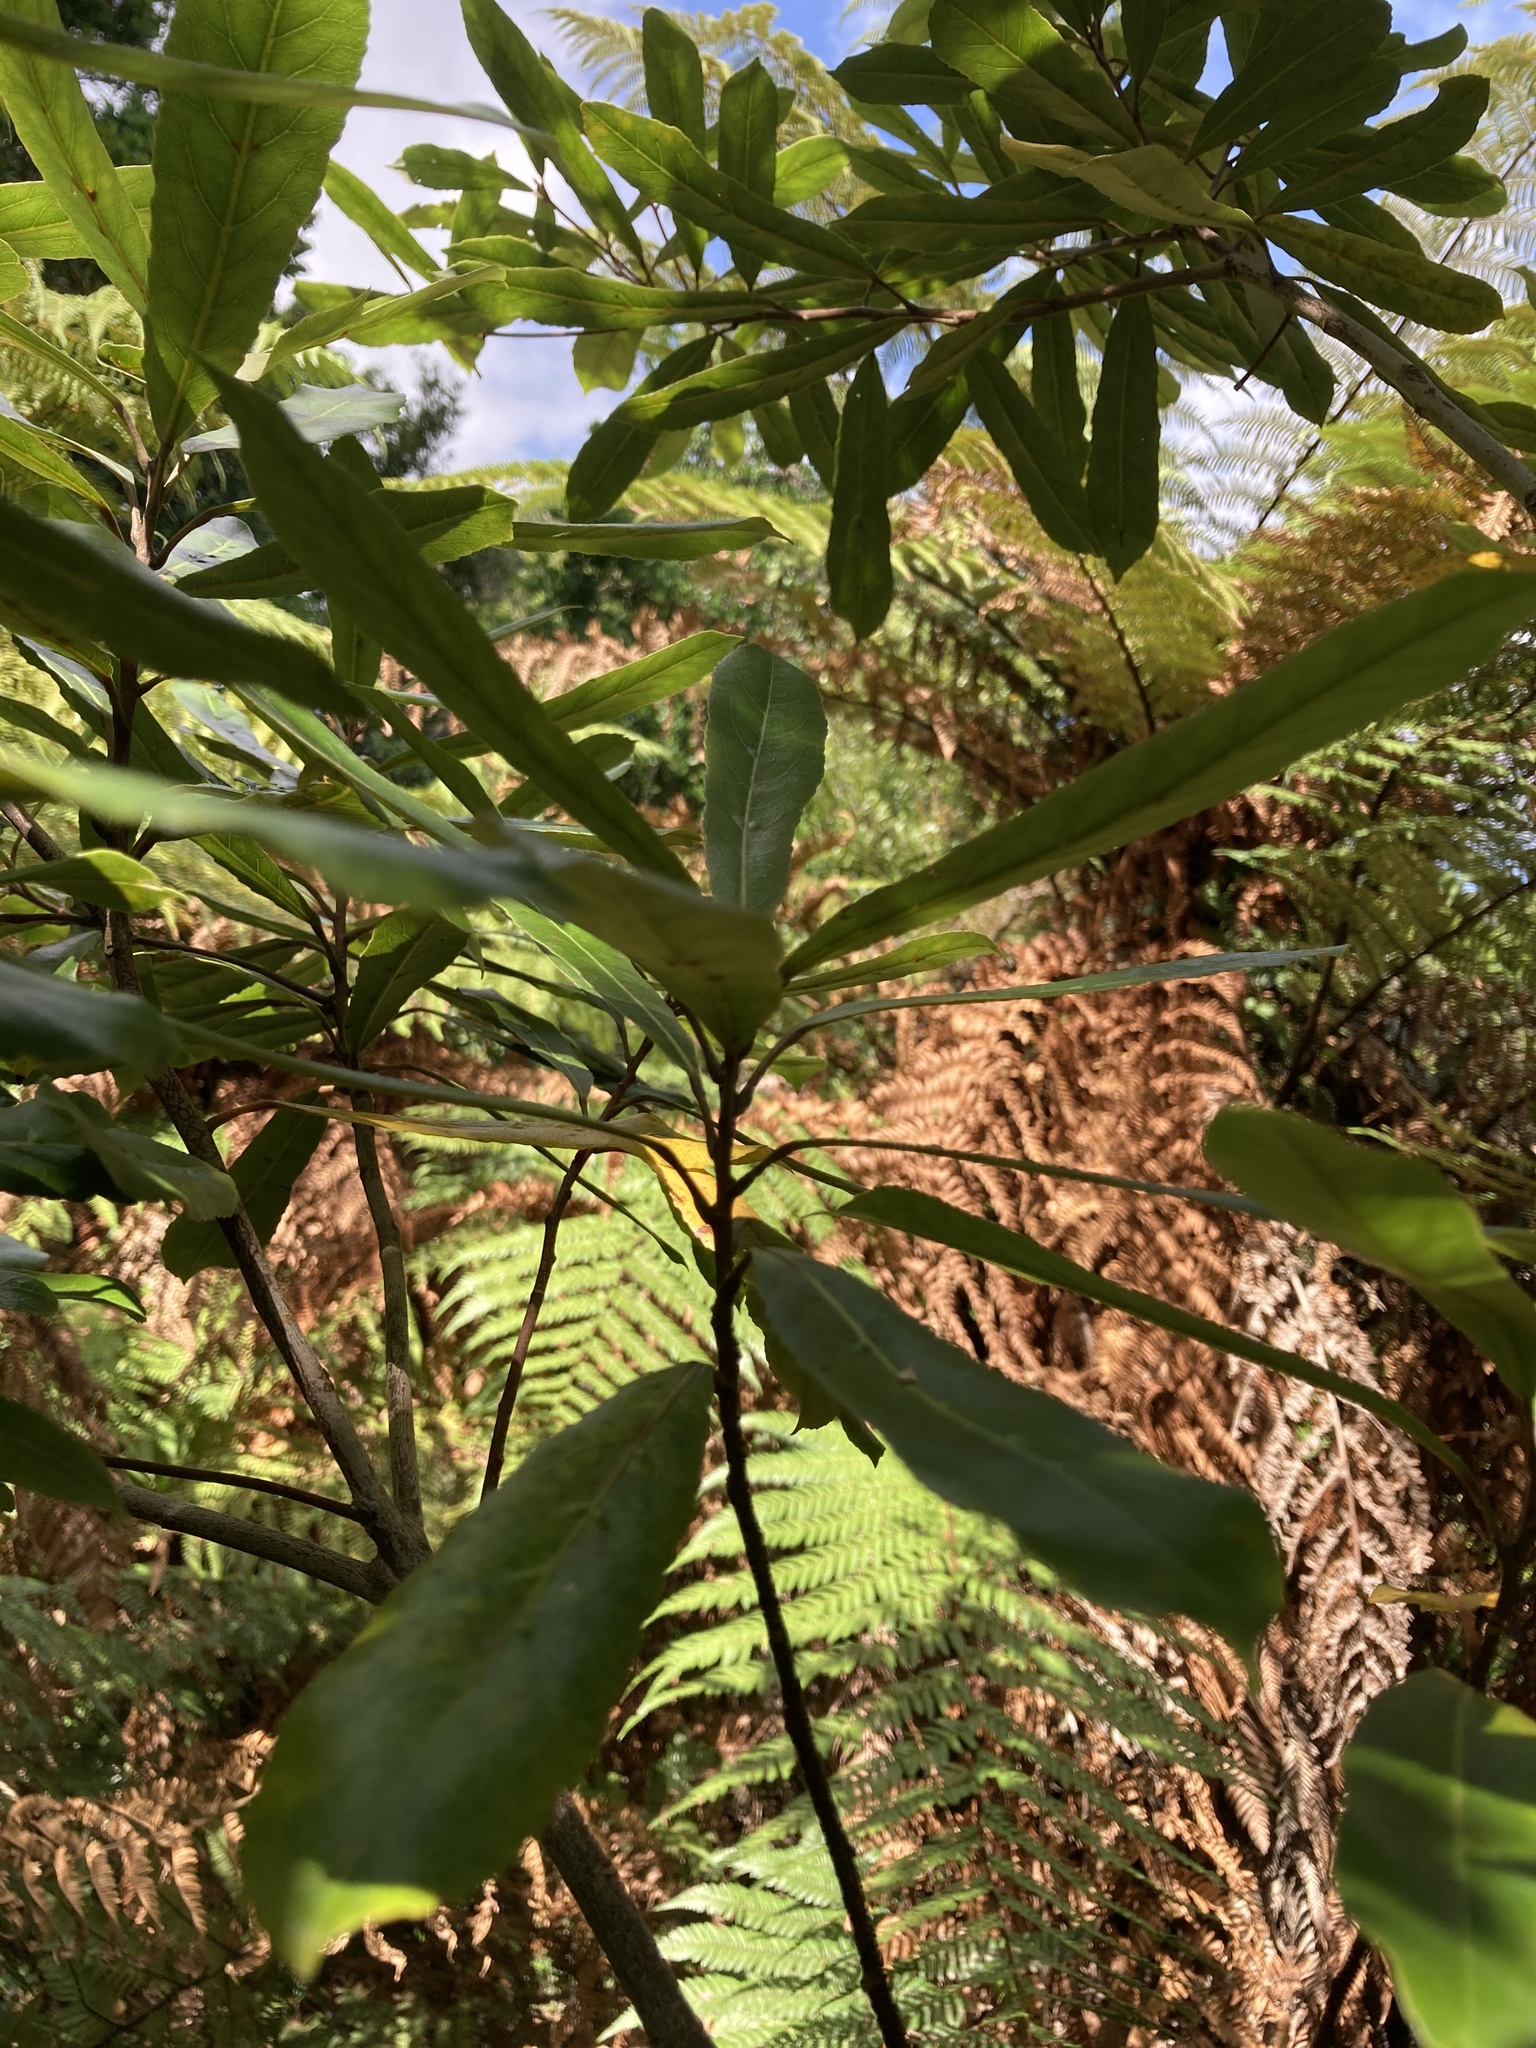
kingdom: Plantae
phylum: Tracheophyta
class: Magnoliopsida
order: Oxalidales
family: Elaeocarpaceae
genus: Elaeocarpus
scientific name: Elaeocarpus dentatus
